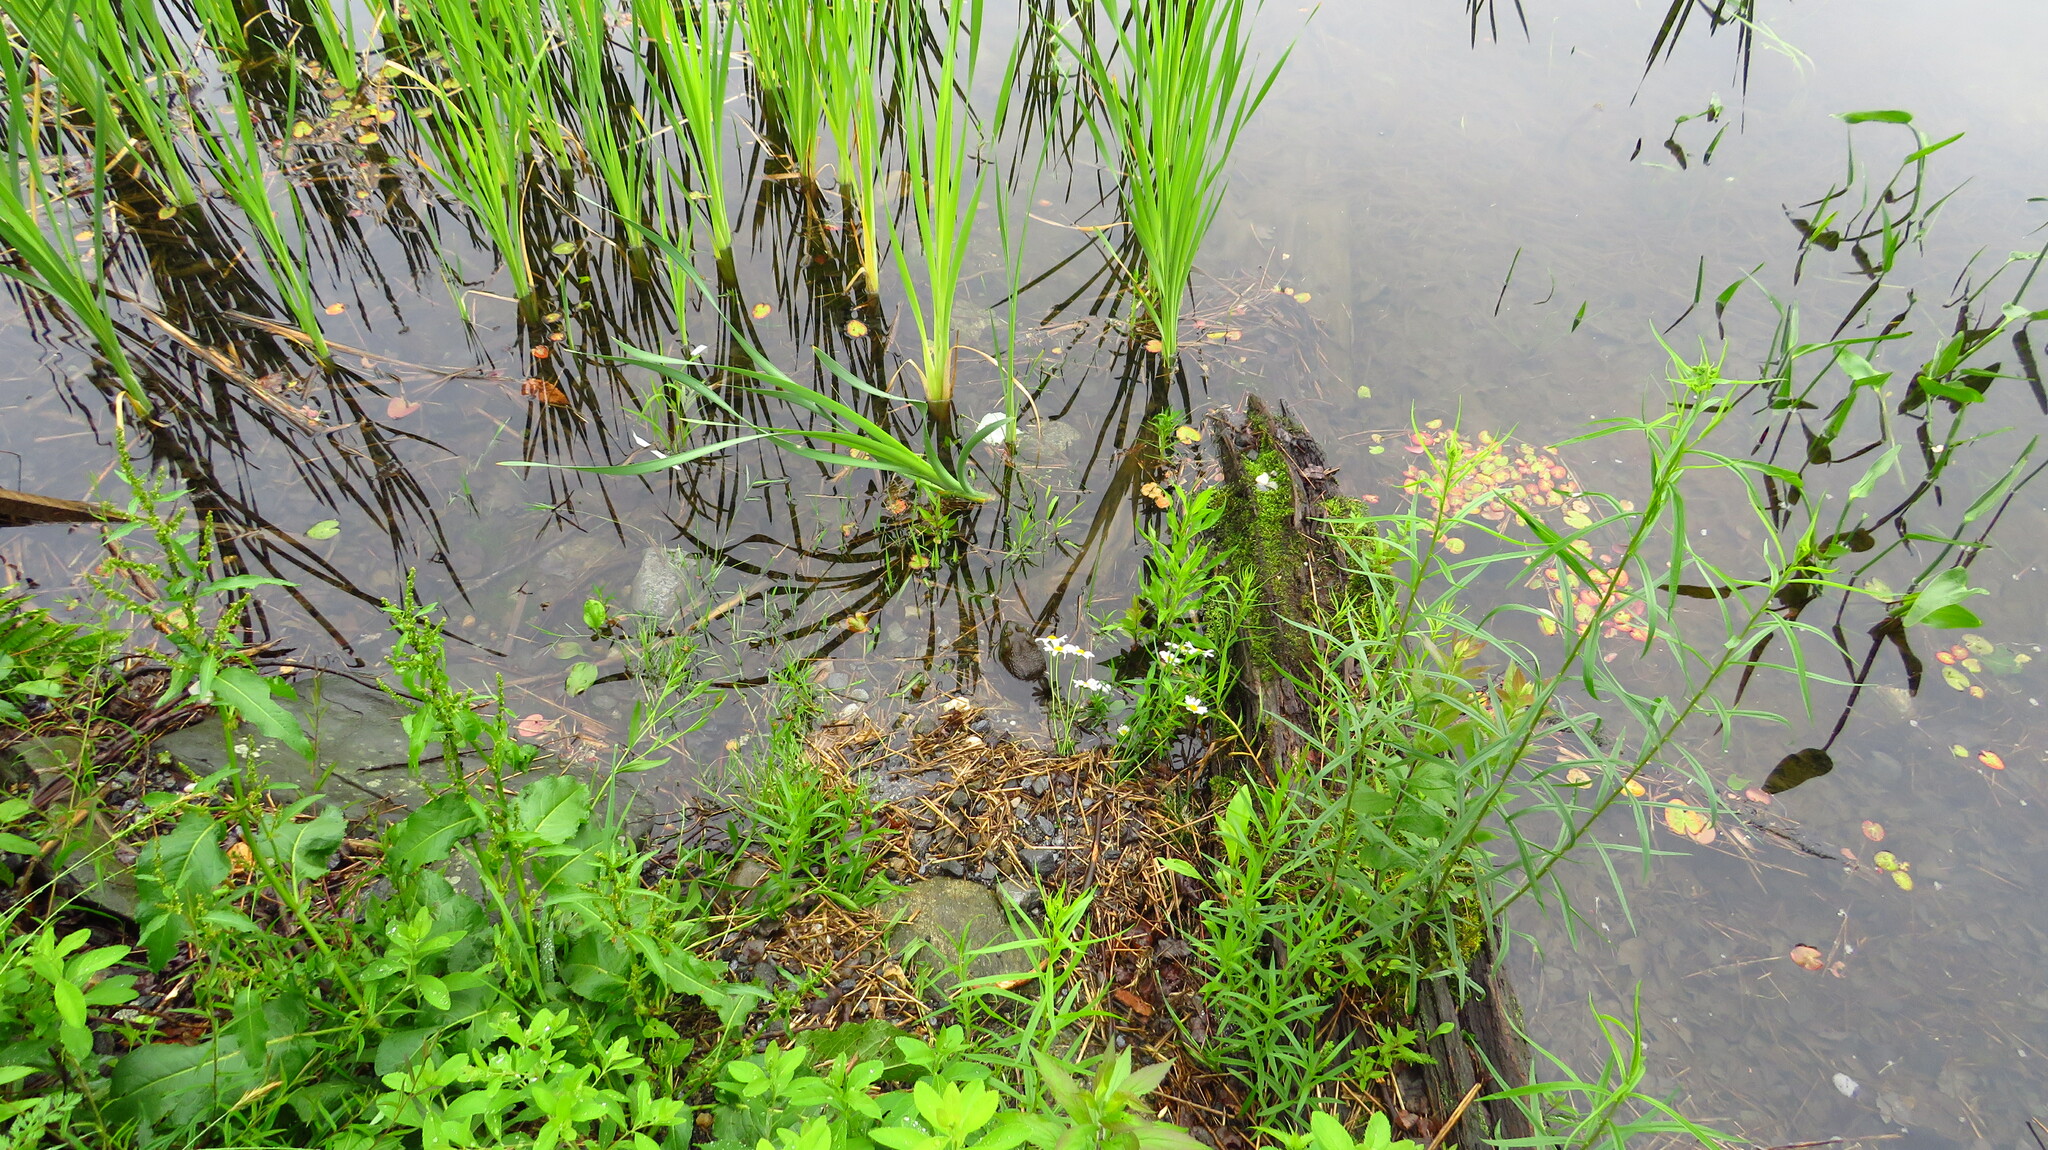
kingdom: Animalia
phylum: Chordata
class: Amphibia
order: Anura
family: Ranidae
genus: Lithobates
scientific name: Lithobates catesbeianus
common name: American bullfrog
